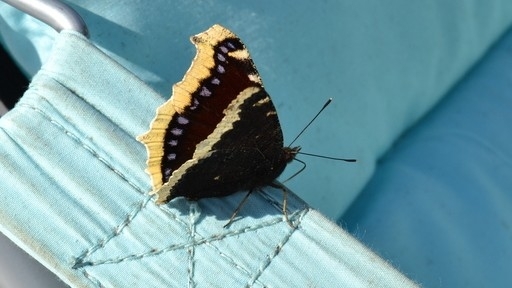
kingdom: Animalia
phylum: Arthropoda
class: Insecta
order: Lepidoptera
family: Nymphalidae
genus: Nymphalis
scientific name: Nymphalis antiopa
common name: Camberwell beauty
